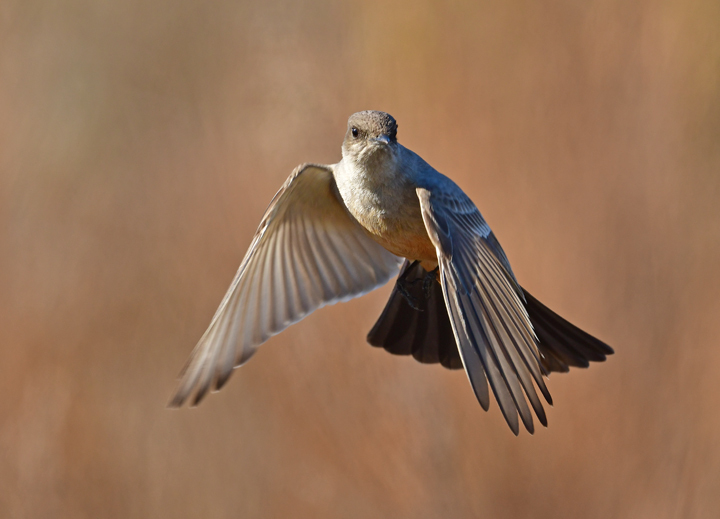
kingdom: Animalia
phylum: Chordata
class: Aves
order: Passeriformes
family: Tyrannidae
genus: Sayornis
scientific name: Sayornis saya
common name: Say's phoebe
